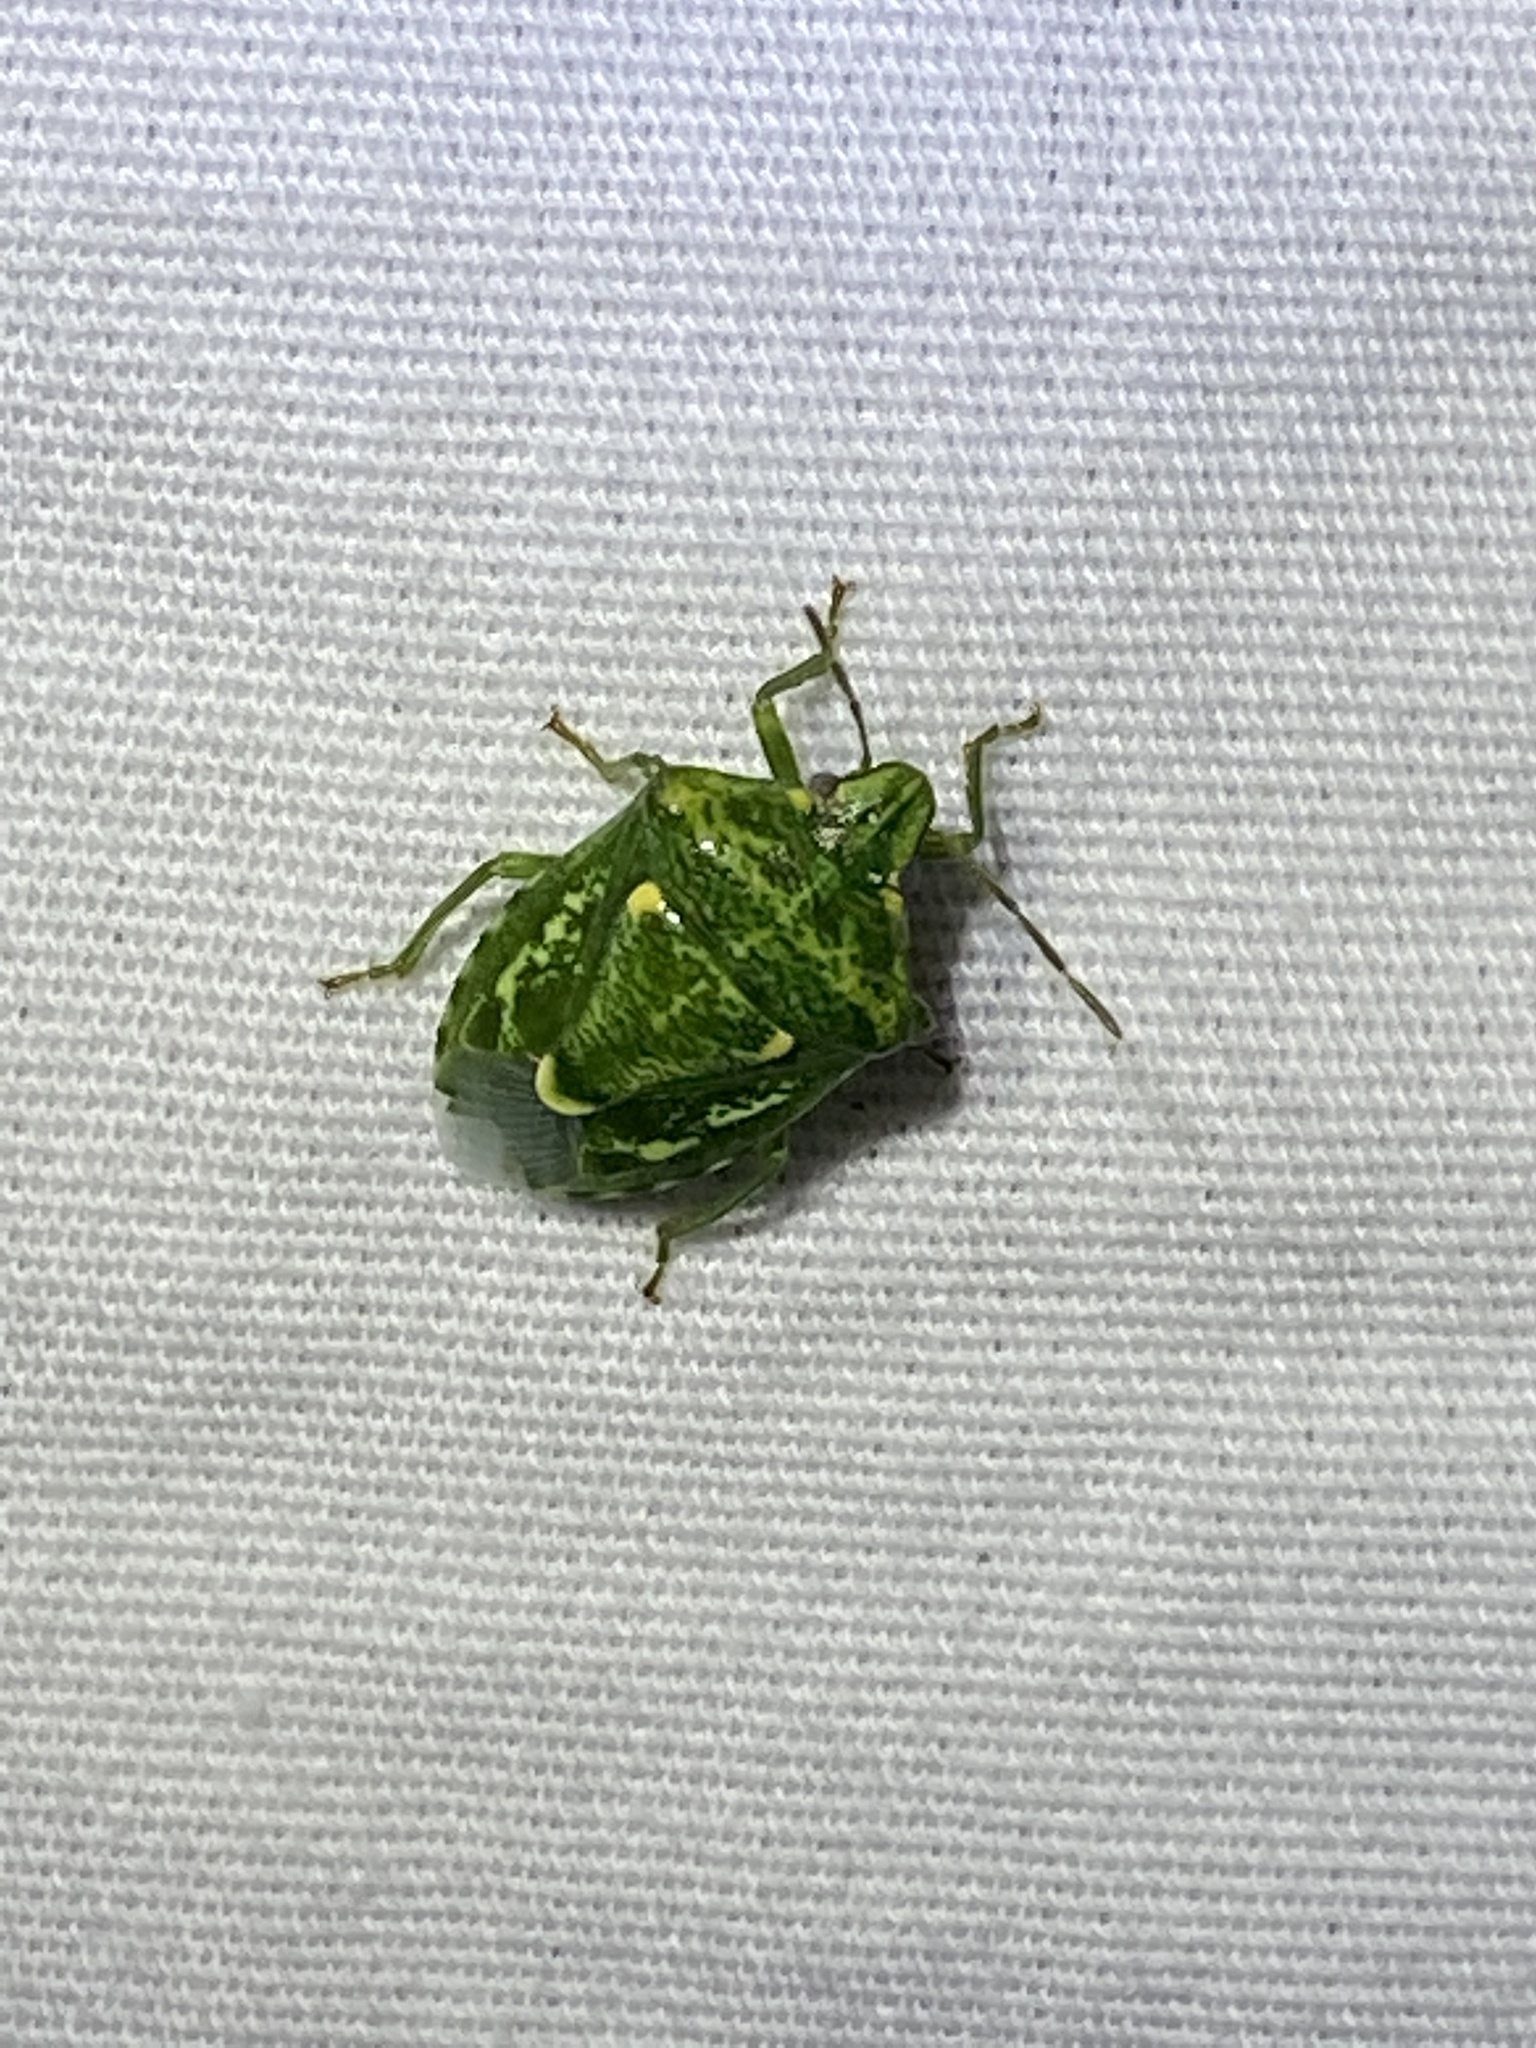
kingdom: Animalia
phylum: Arthropoda
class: Insecta
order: Hemiptera
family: Pentatomidae
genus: Banasa
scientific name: Banasa euchlora
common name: Cedar berry bug
